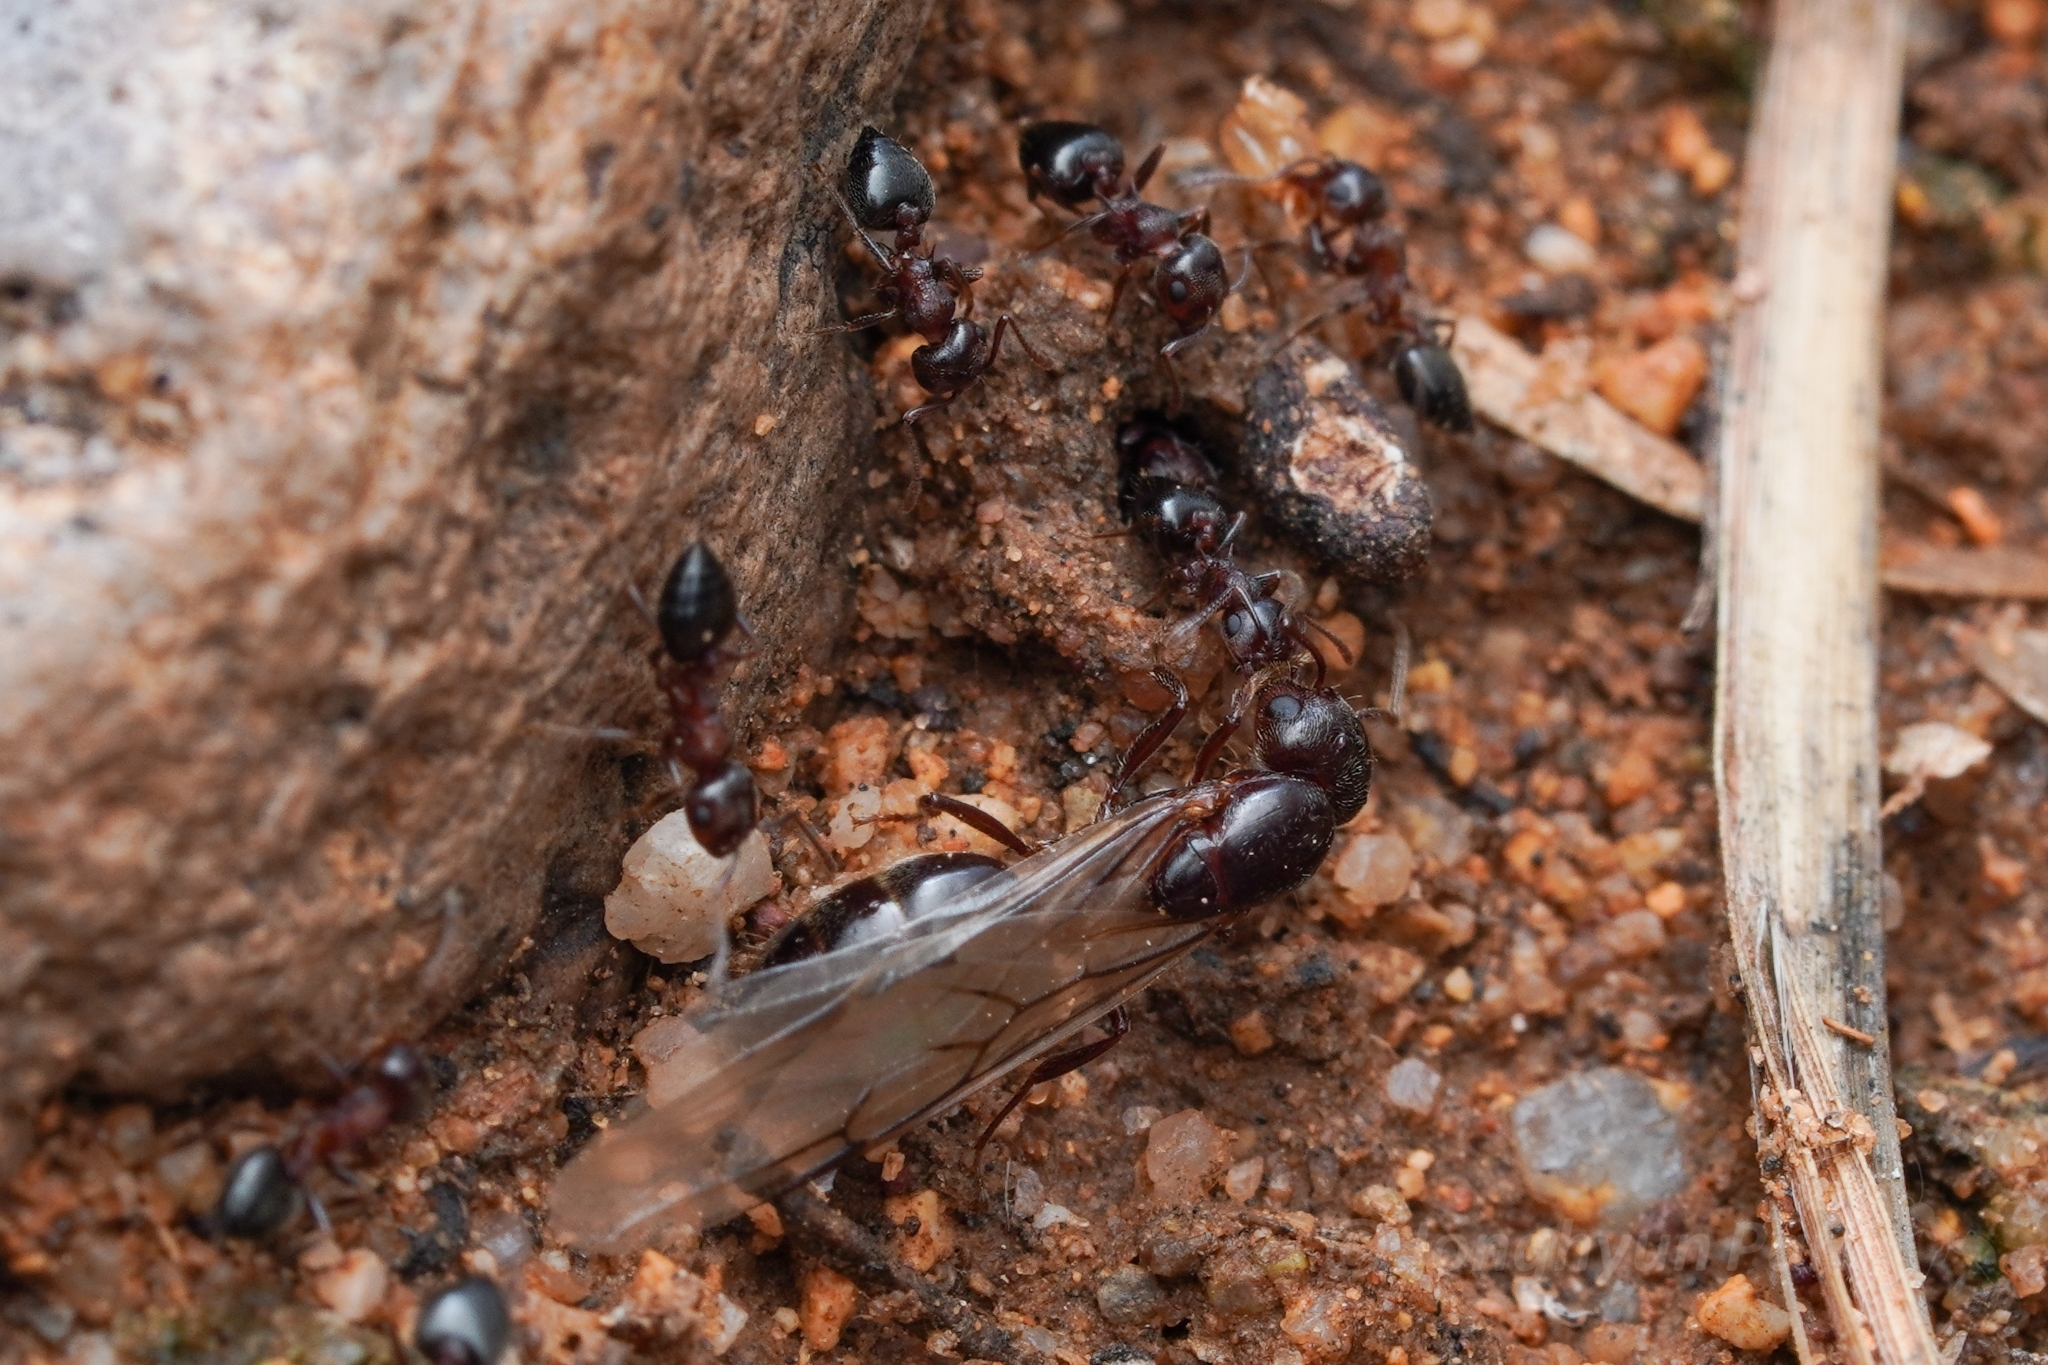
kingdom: Animalia
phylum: Arthropoda
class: Insecta
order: Hymenoptera
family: Formicidae
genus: Crematogaster
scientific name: Crematogaster opuntiae
